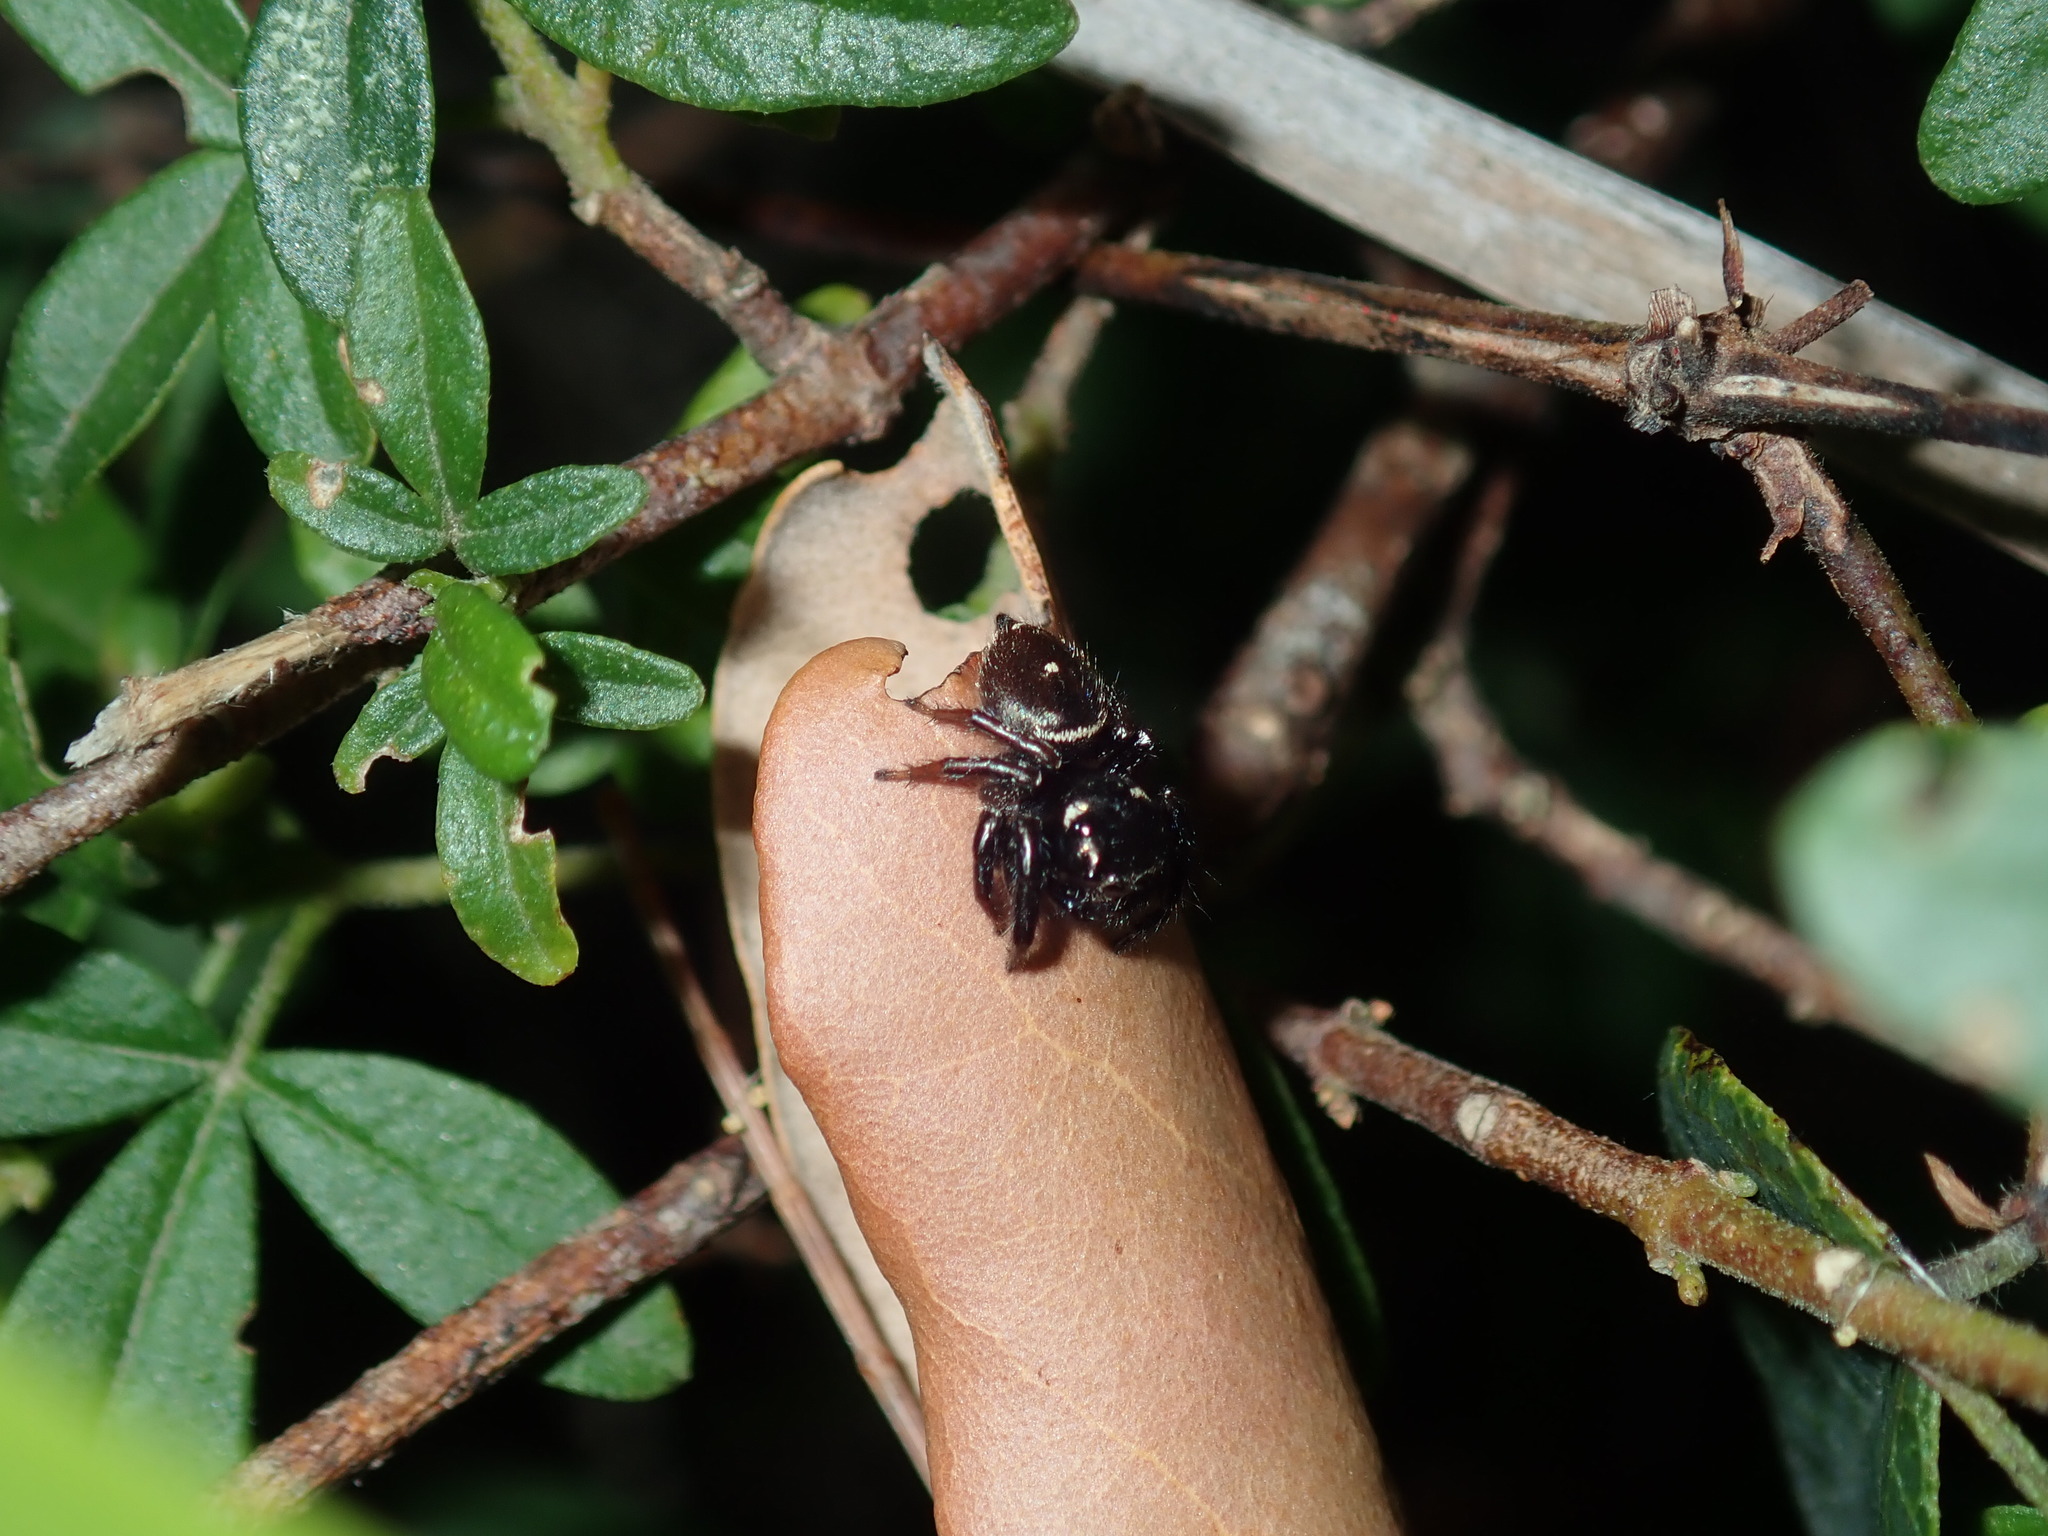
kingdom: Animalia
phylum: Arthropoda
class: Arachnida
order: Araneae
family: Salticidae
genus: Zenodorus
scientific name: Zenodorus orbiculatus
